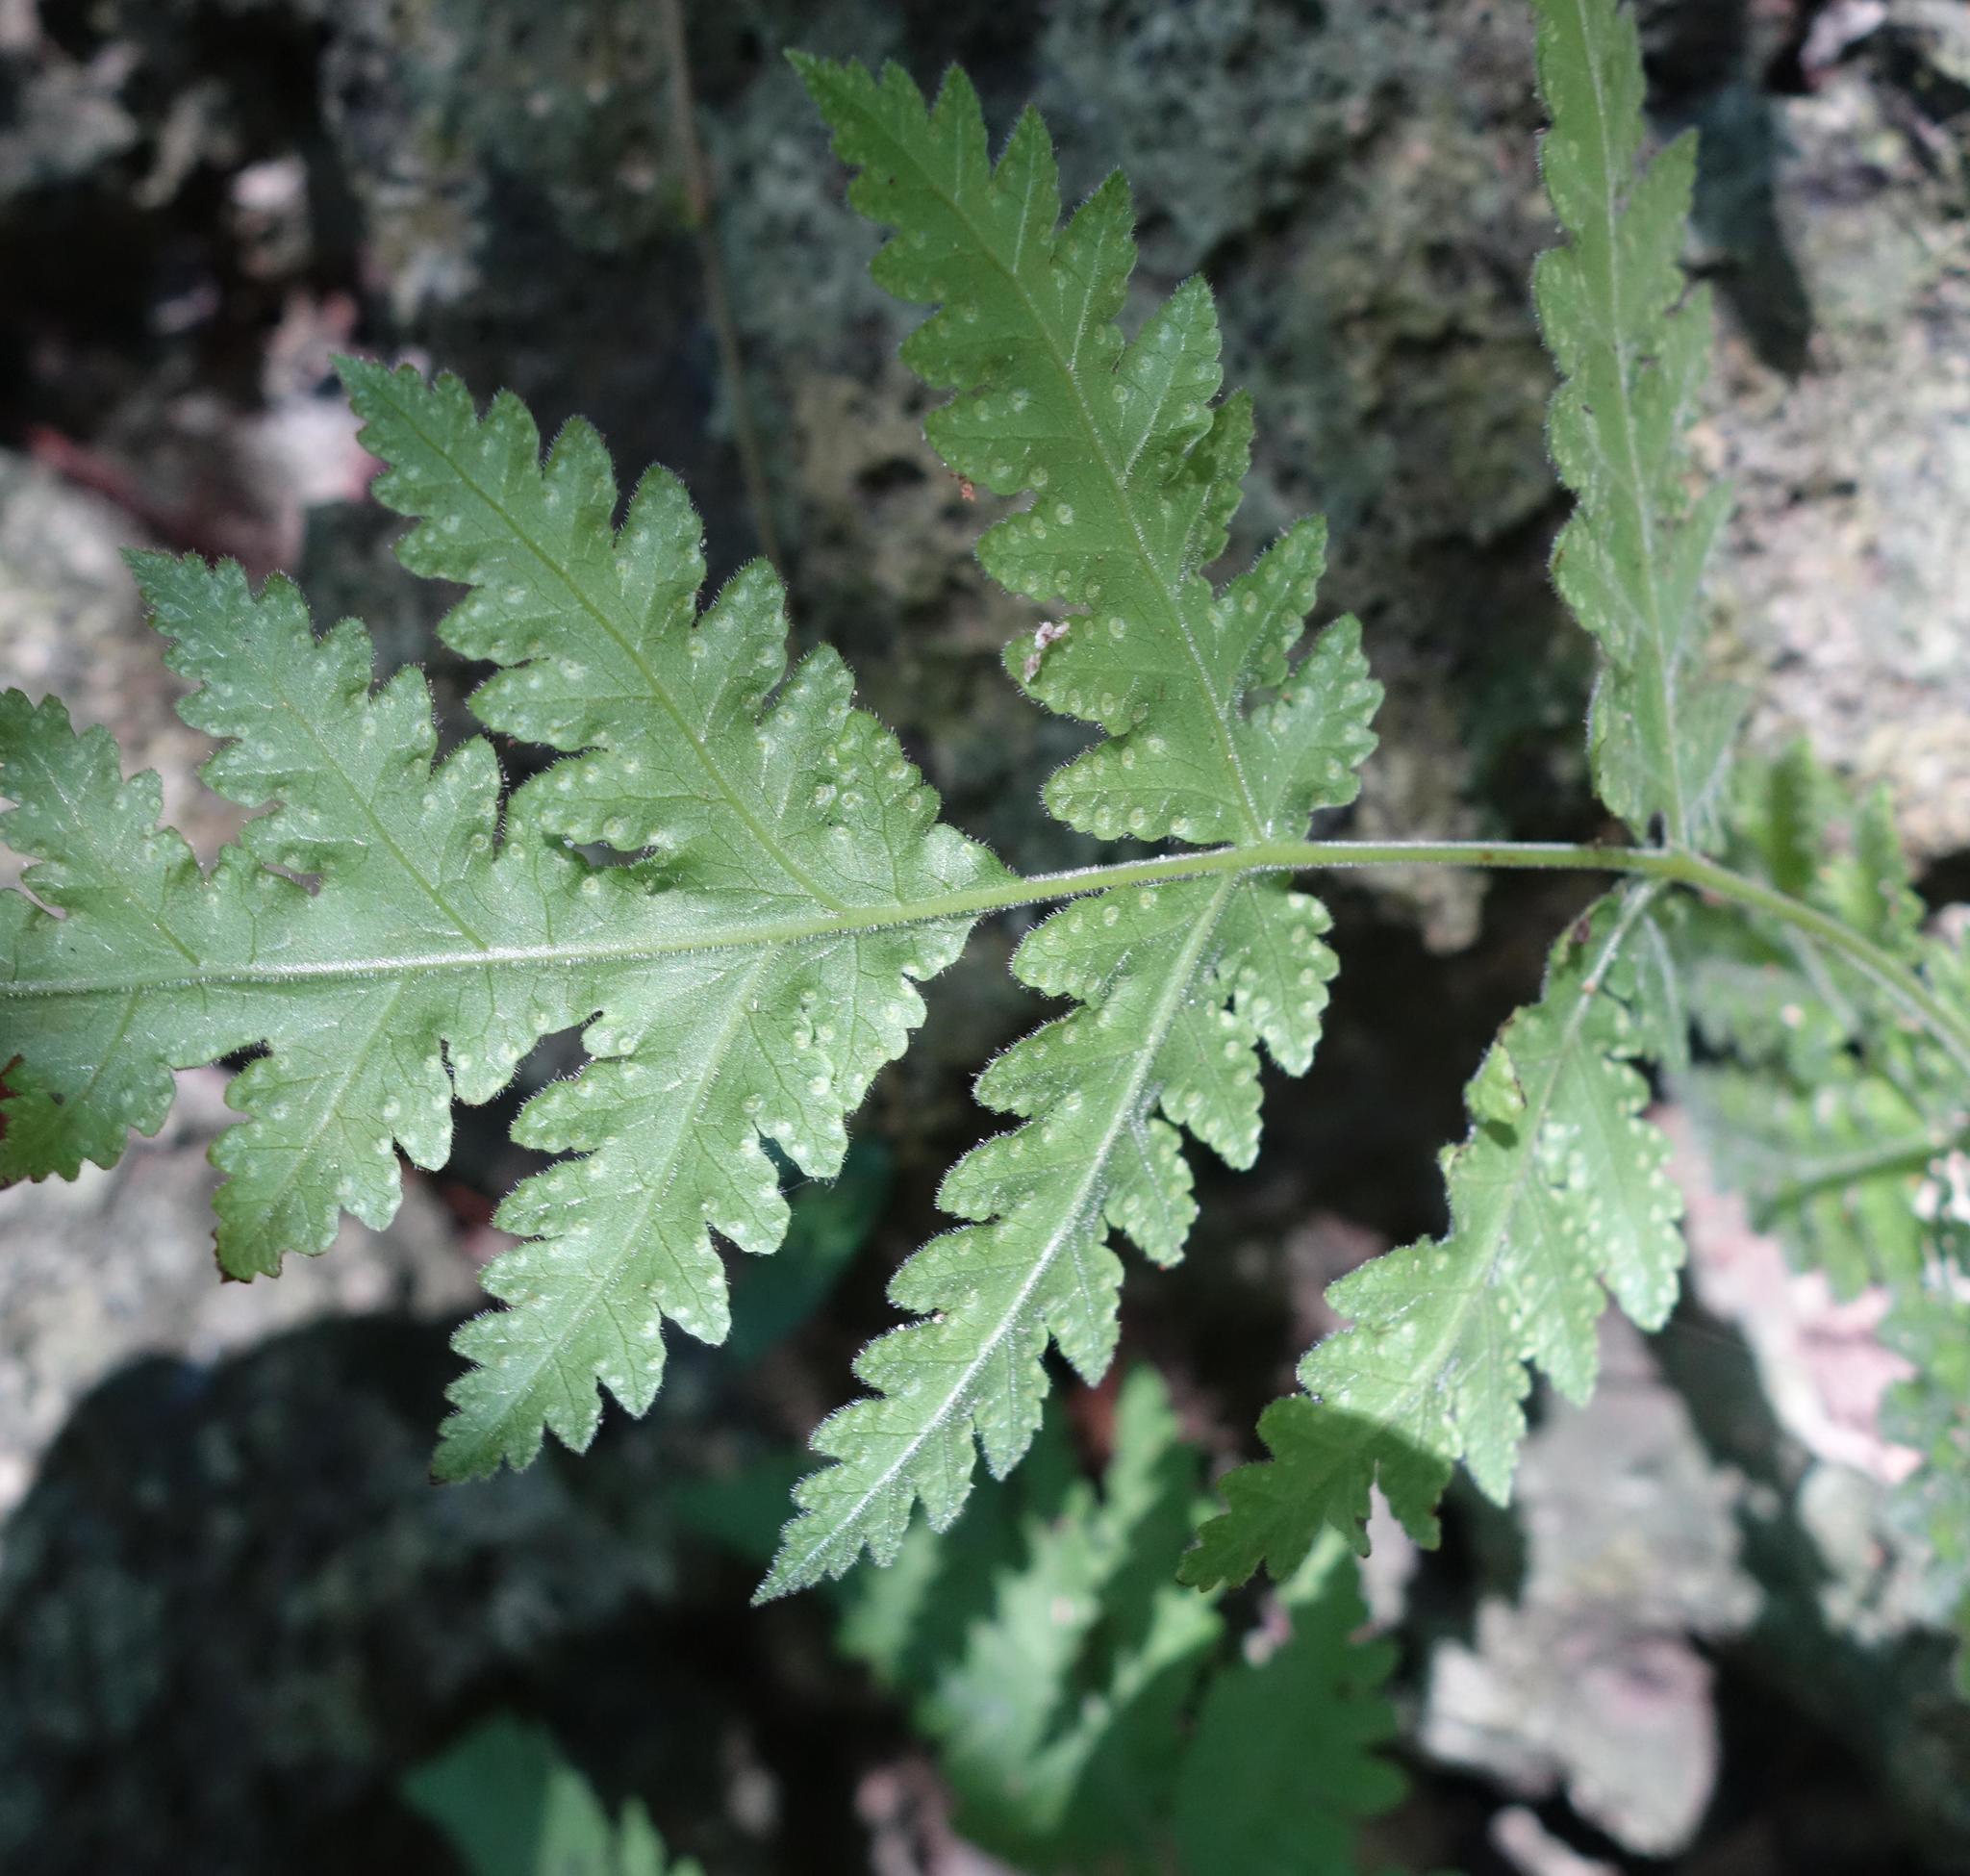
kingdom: Plantae
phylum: Tracheophyta
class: Polypodiopsida
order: Polypodiales
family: Tectariaceae
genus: Tectaria
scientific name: Tectaria membranacea
